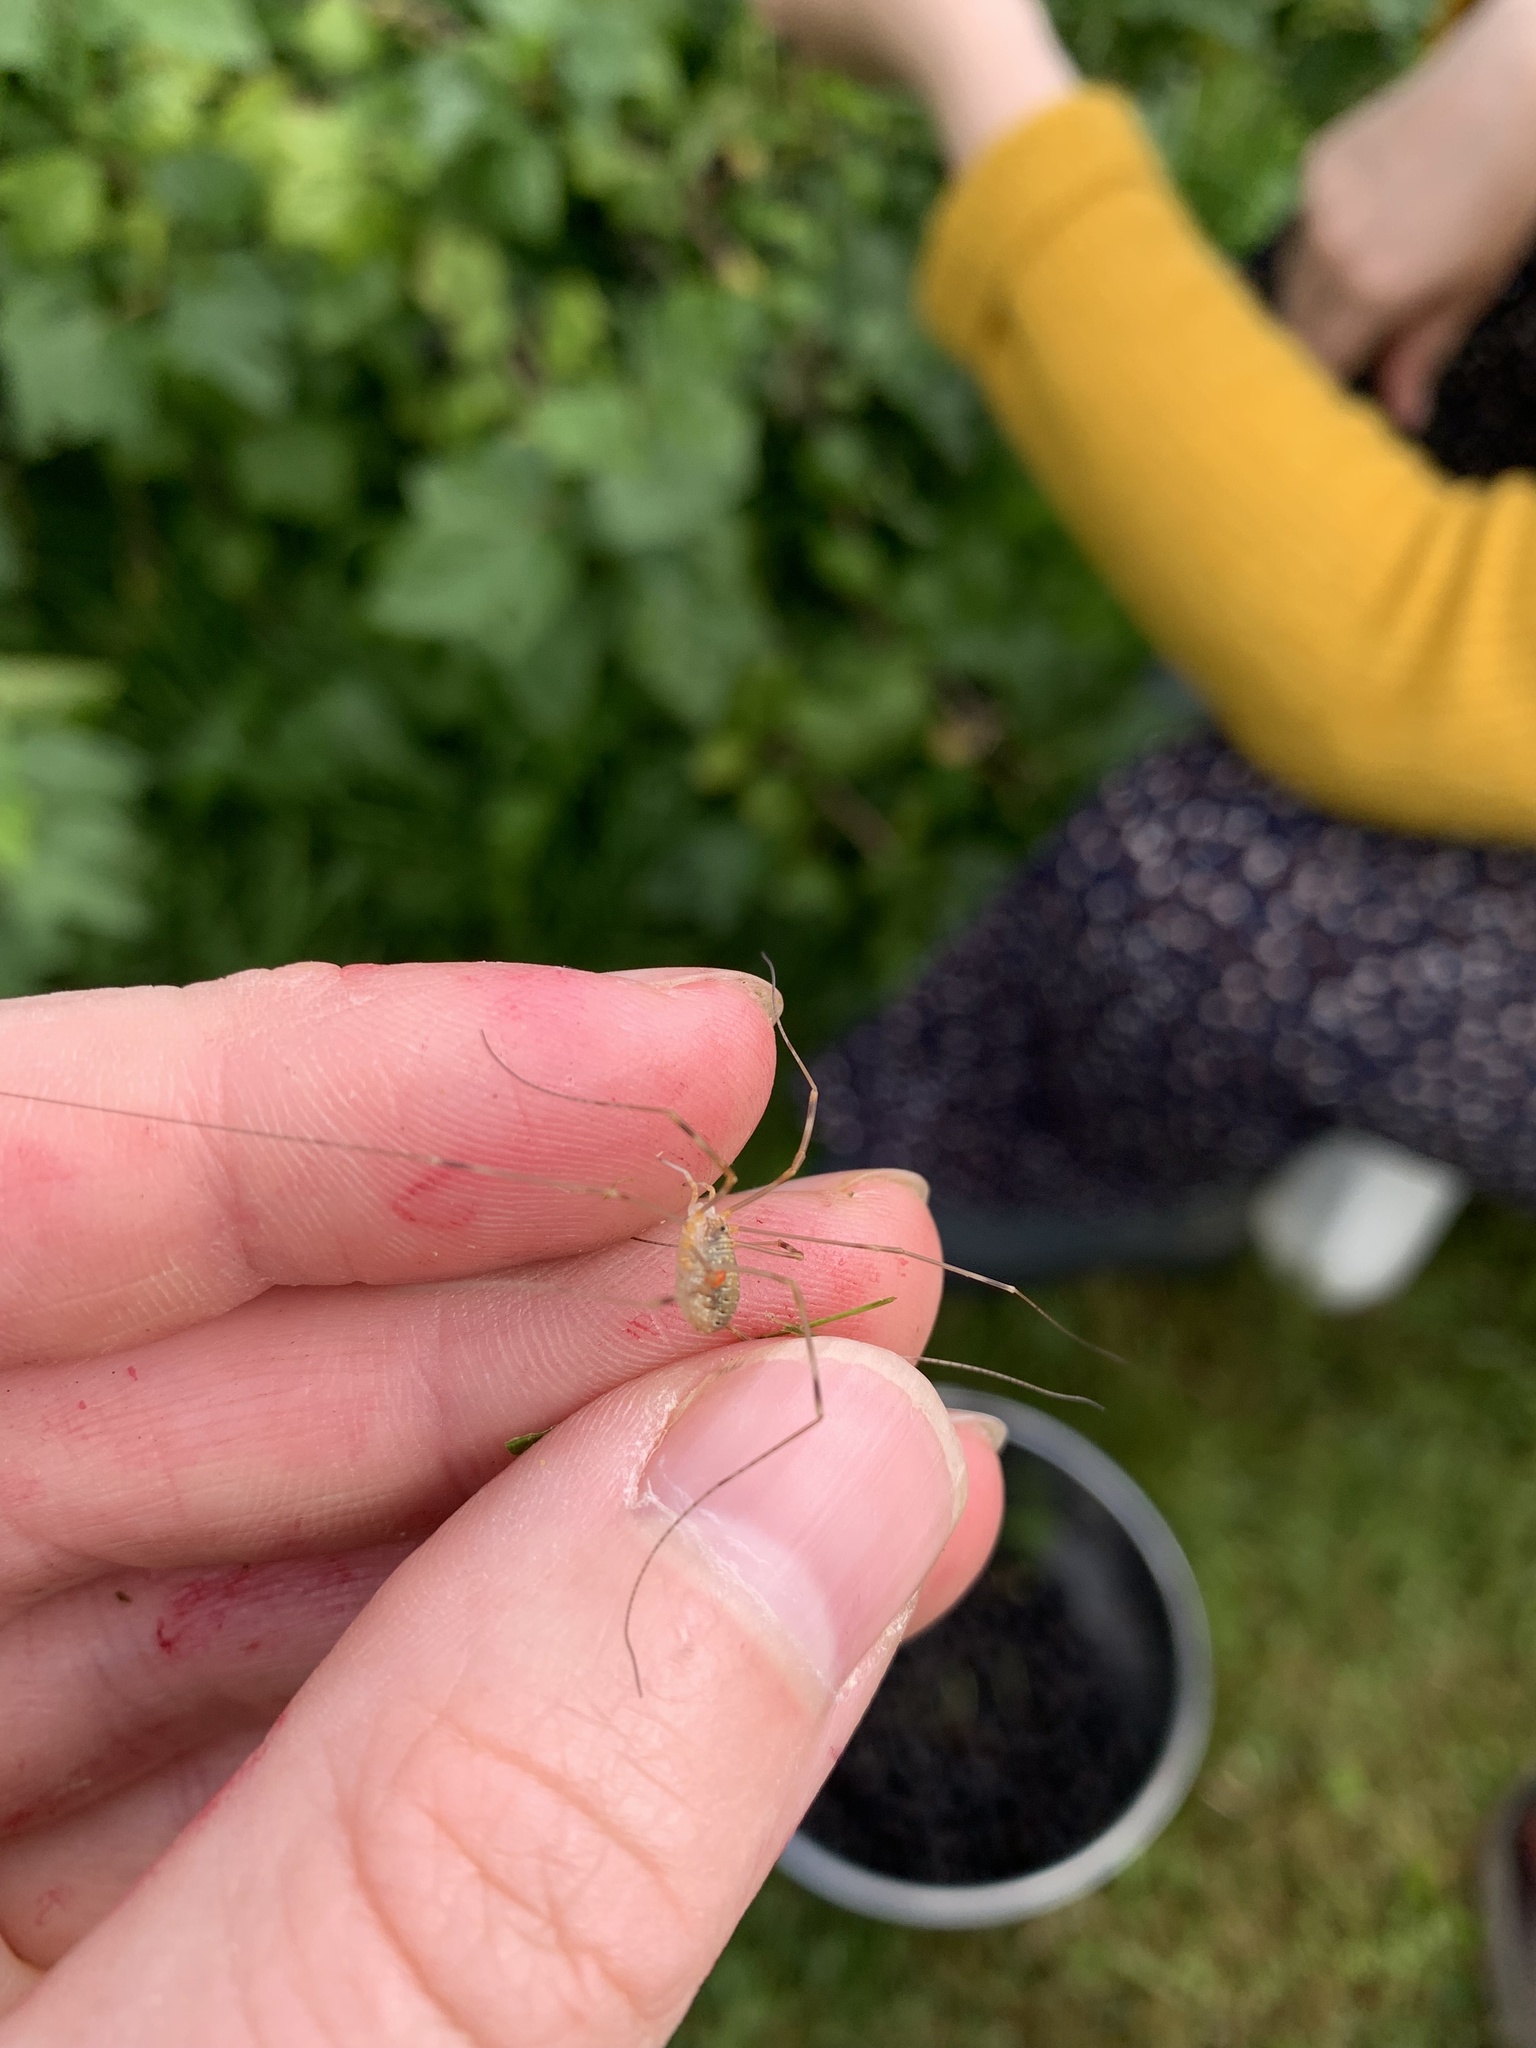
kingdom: Animalia
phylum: Arthropoda
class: Arachnida
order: Opiliones
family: Phalangiidae
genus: Opilio
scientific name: Opilio canestrinii
